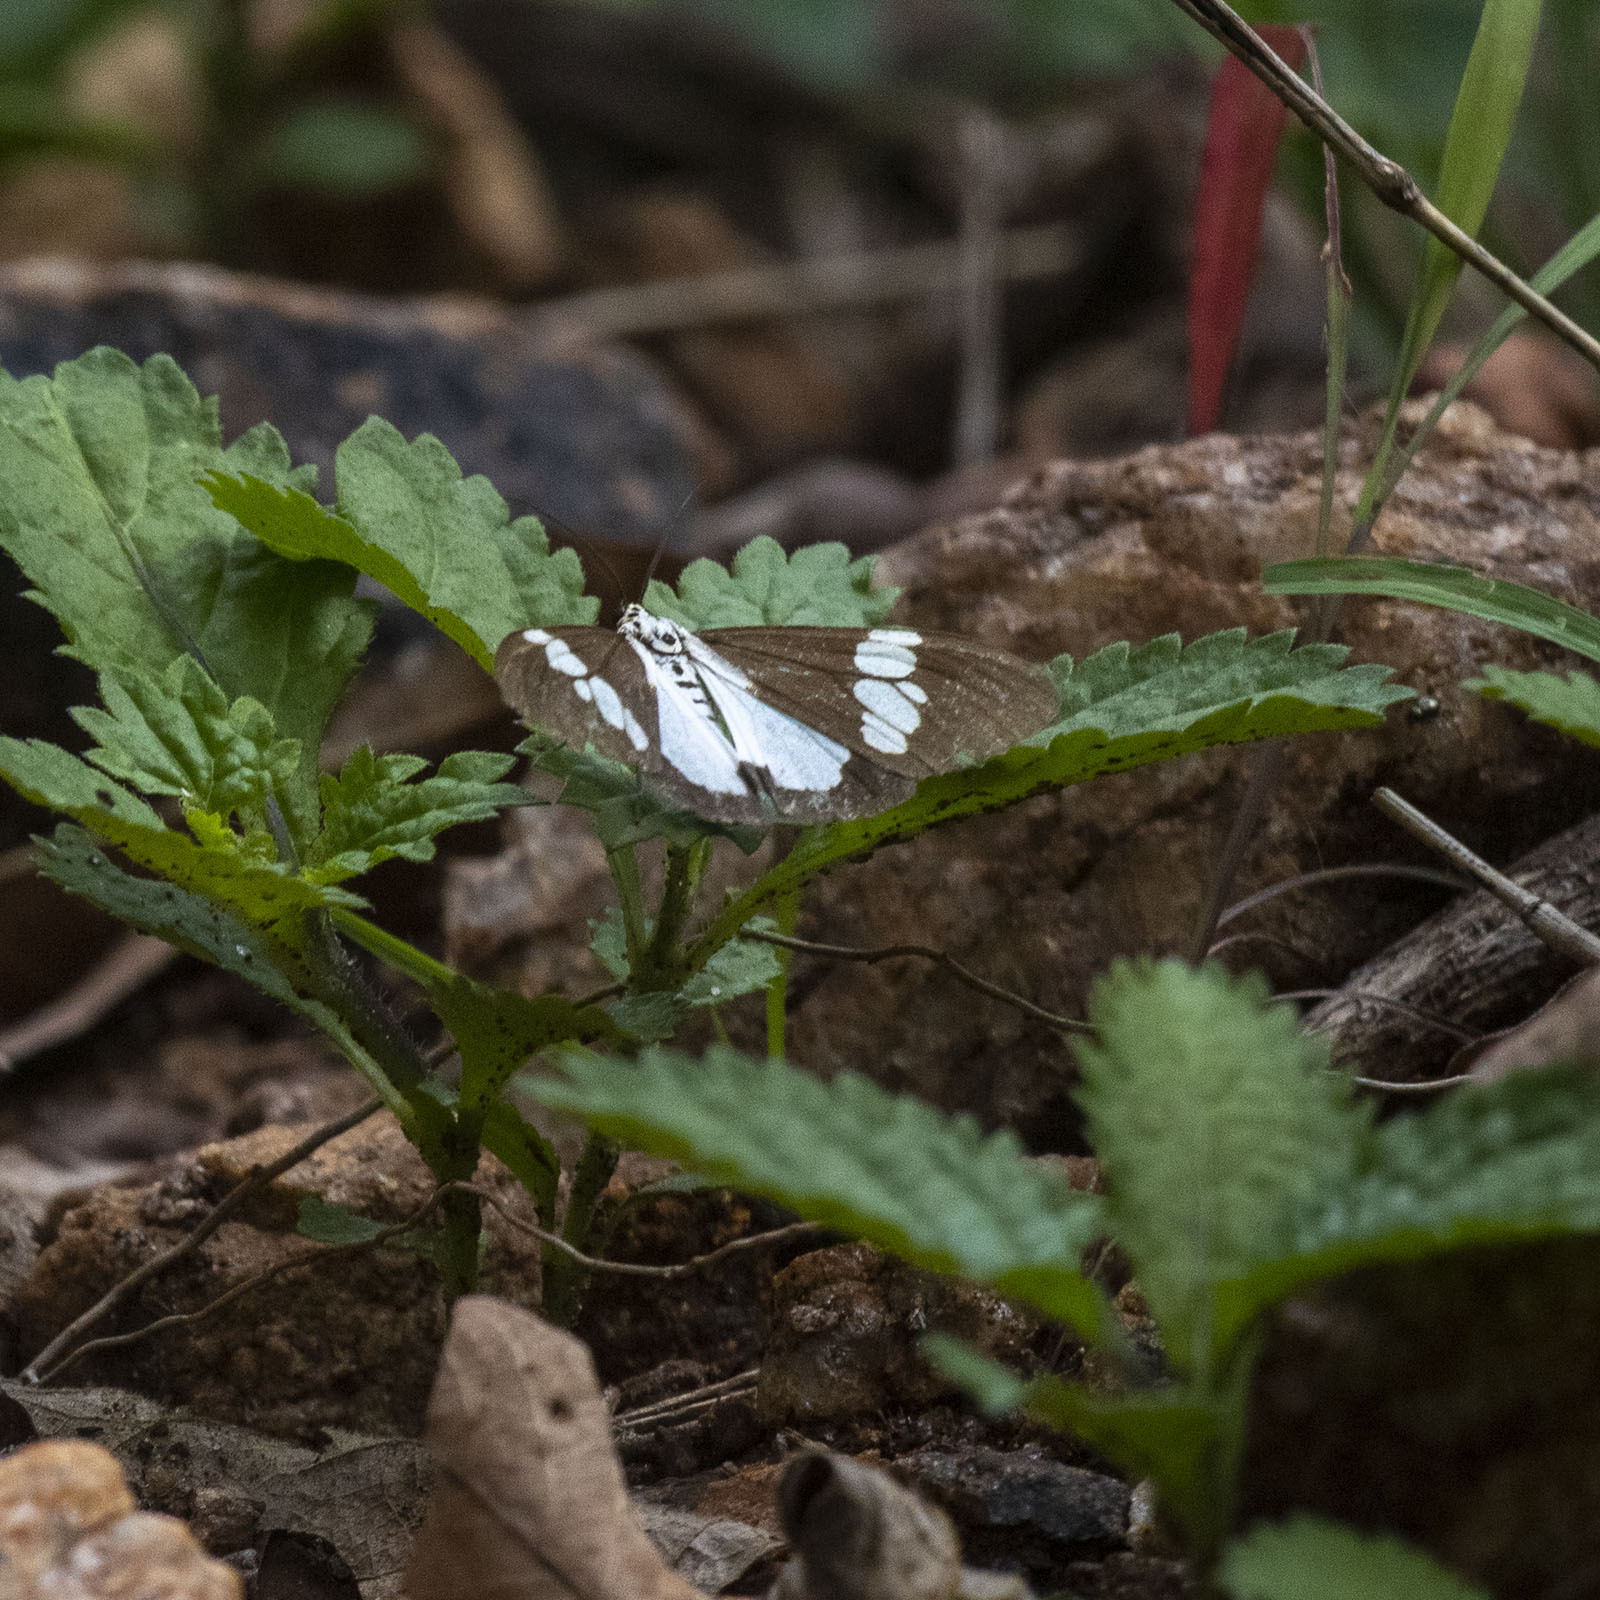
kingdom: Animalia
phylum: Arthropoda
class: Insecta
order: Lepidoptera
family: Erebidae
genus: Nyctemera
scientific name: Nyctemera lacticinia
